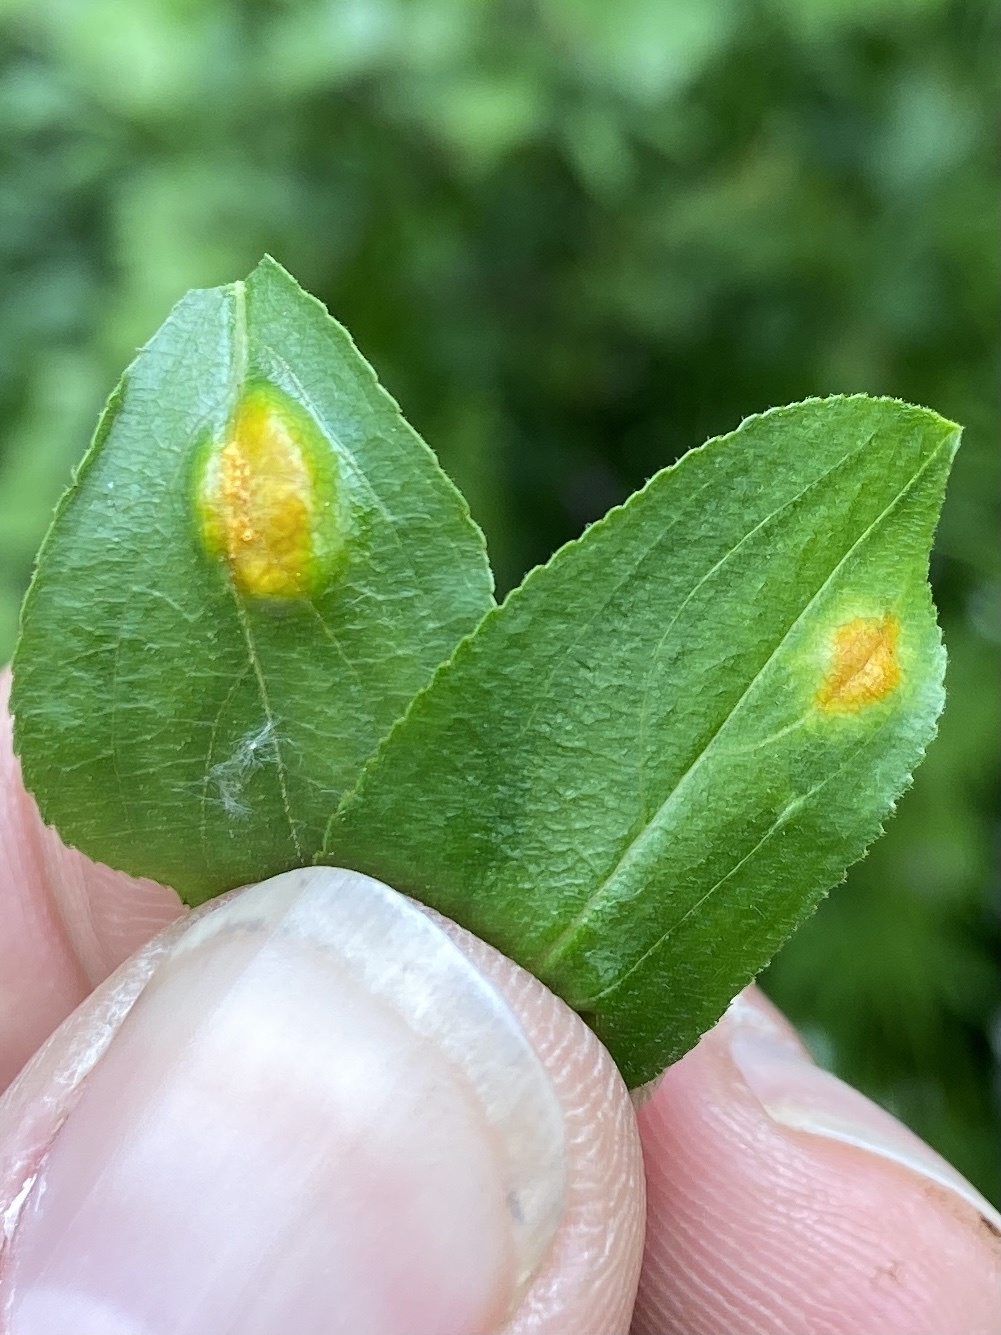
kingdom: Fungi
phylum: Basidiomycota
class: Pucciniomycetes
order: Pucciniales
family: Pucciniaceae
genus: Puccinia
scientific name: Puccinia coronata
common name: Crown rust
